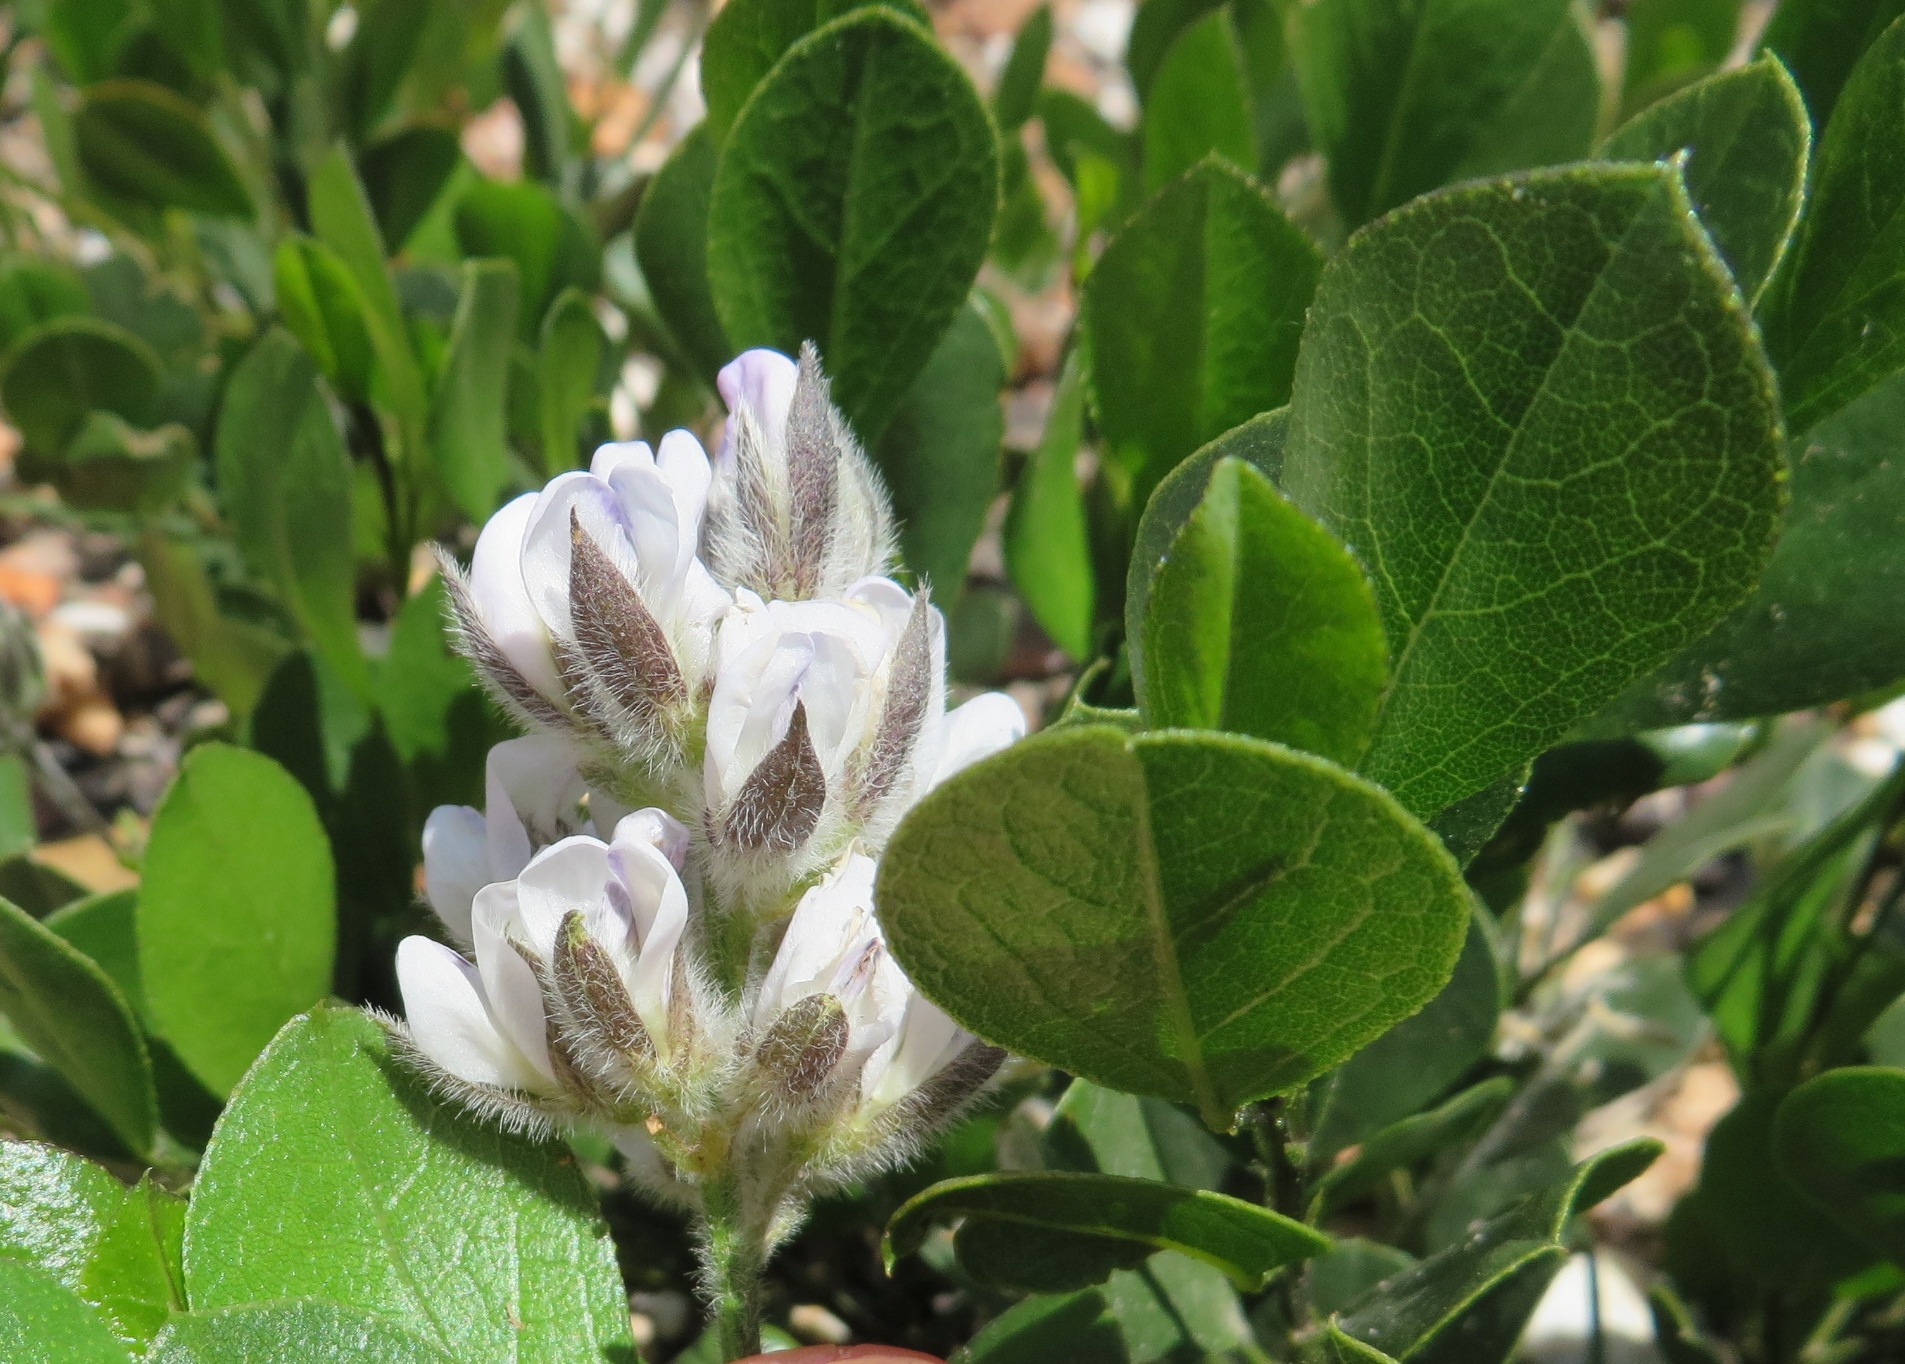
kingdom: Plantae
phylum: Tracheophyta
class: Magnoliopsida
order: Fabales
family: Fabaceae
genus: Psoralea
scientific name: Psoralea rotundifolia
